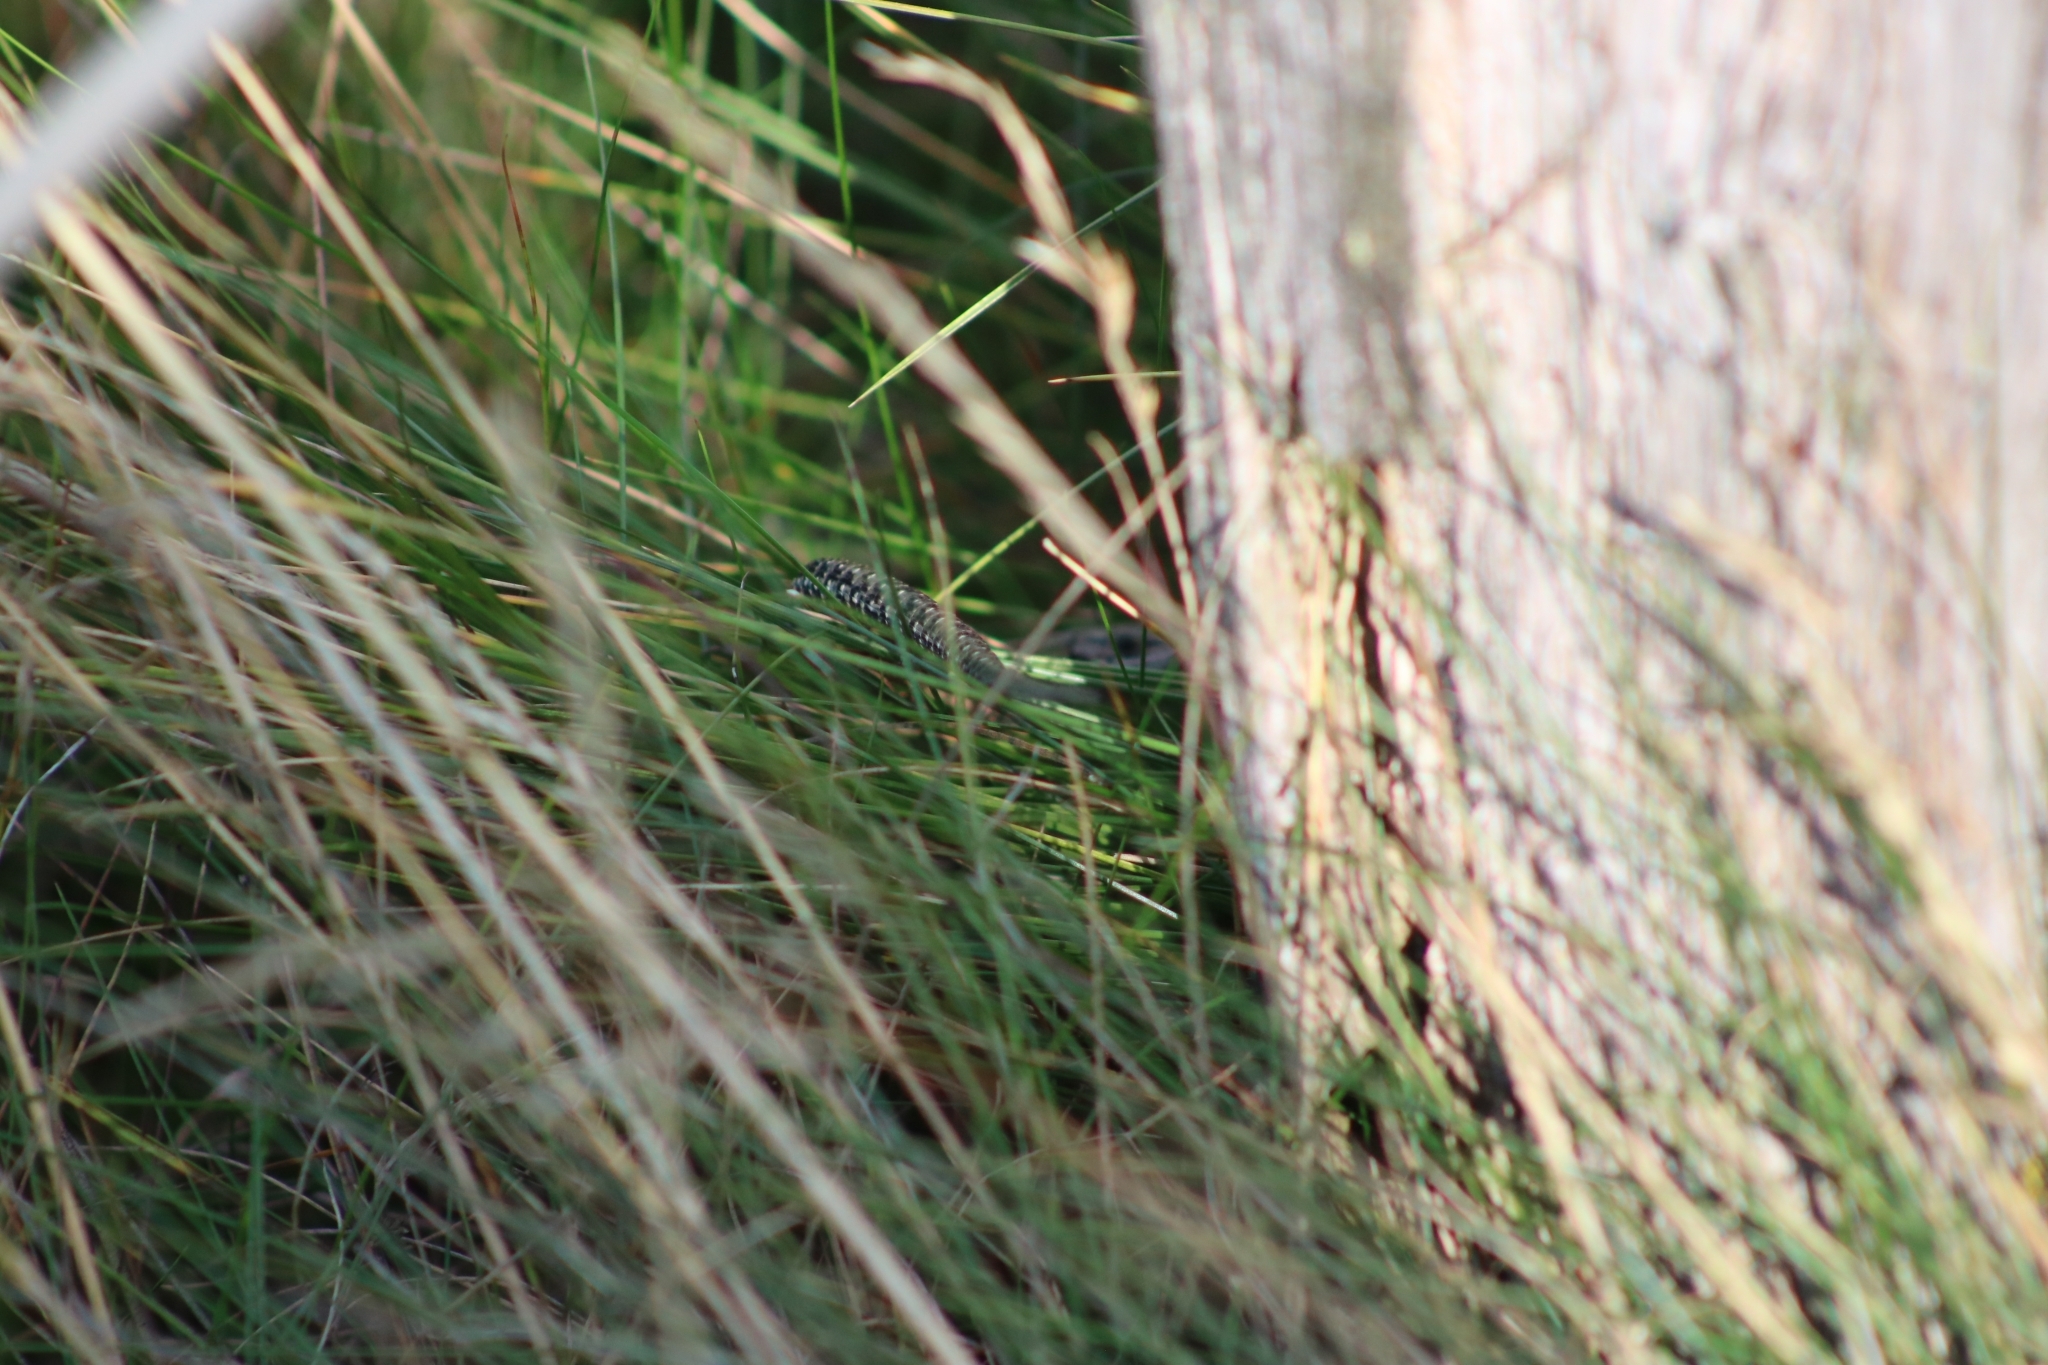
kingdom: Animalia
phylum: Chordata
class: Squamata
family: Lacertidae
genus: Zootoca
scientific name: Zootoca vivipara
